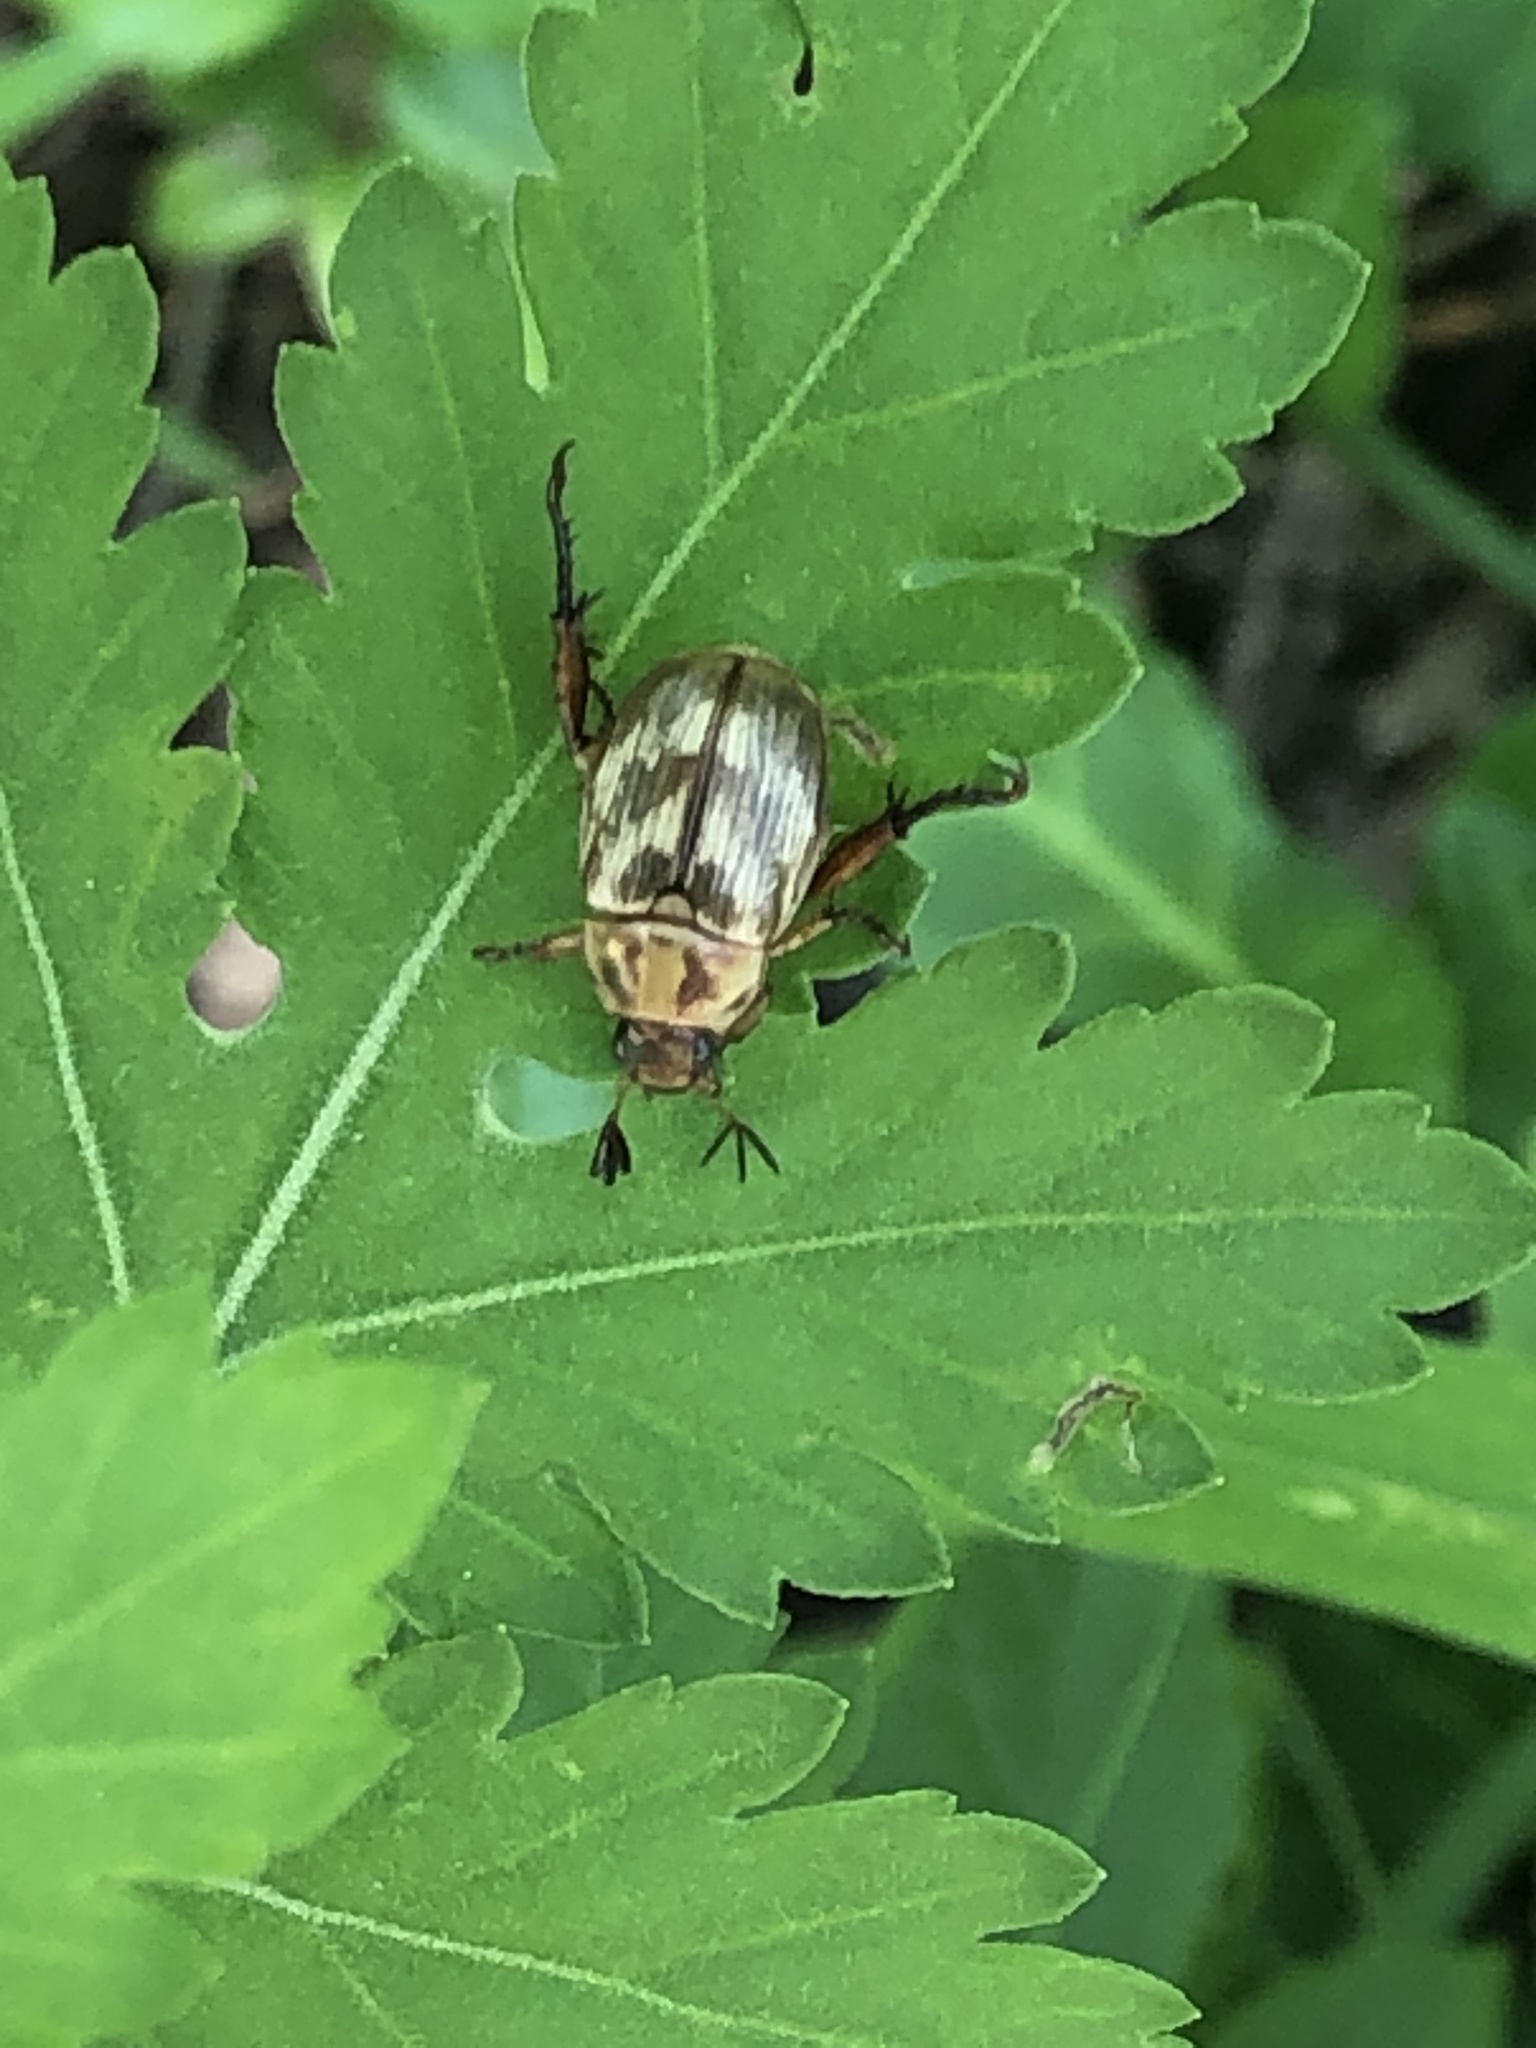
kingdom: Animalia
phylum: Arthropoda
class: Insecta
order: Coleoptera
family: Scarabaeidae
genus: Exomala
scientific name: Exomala orientalis
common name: Oriental beetle
